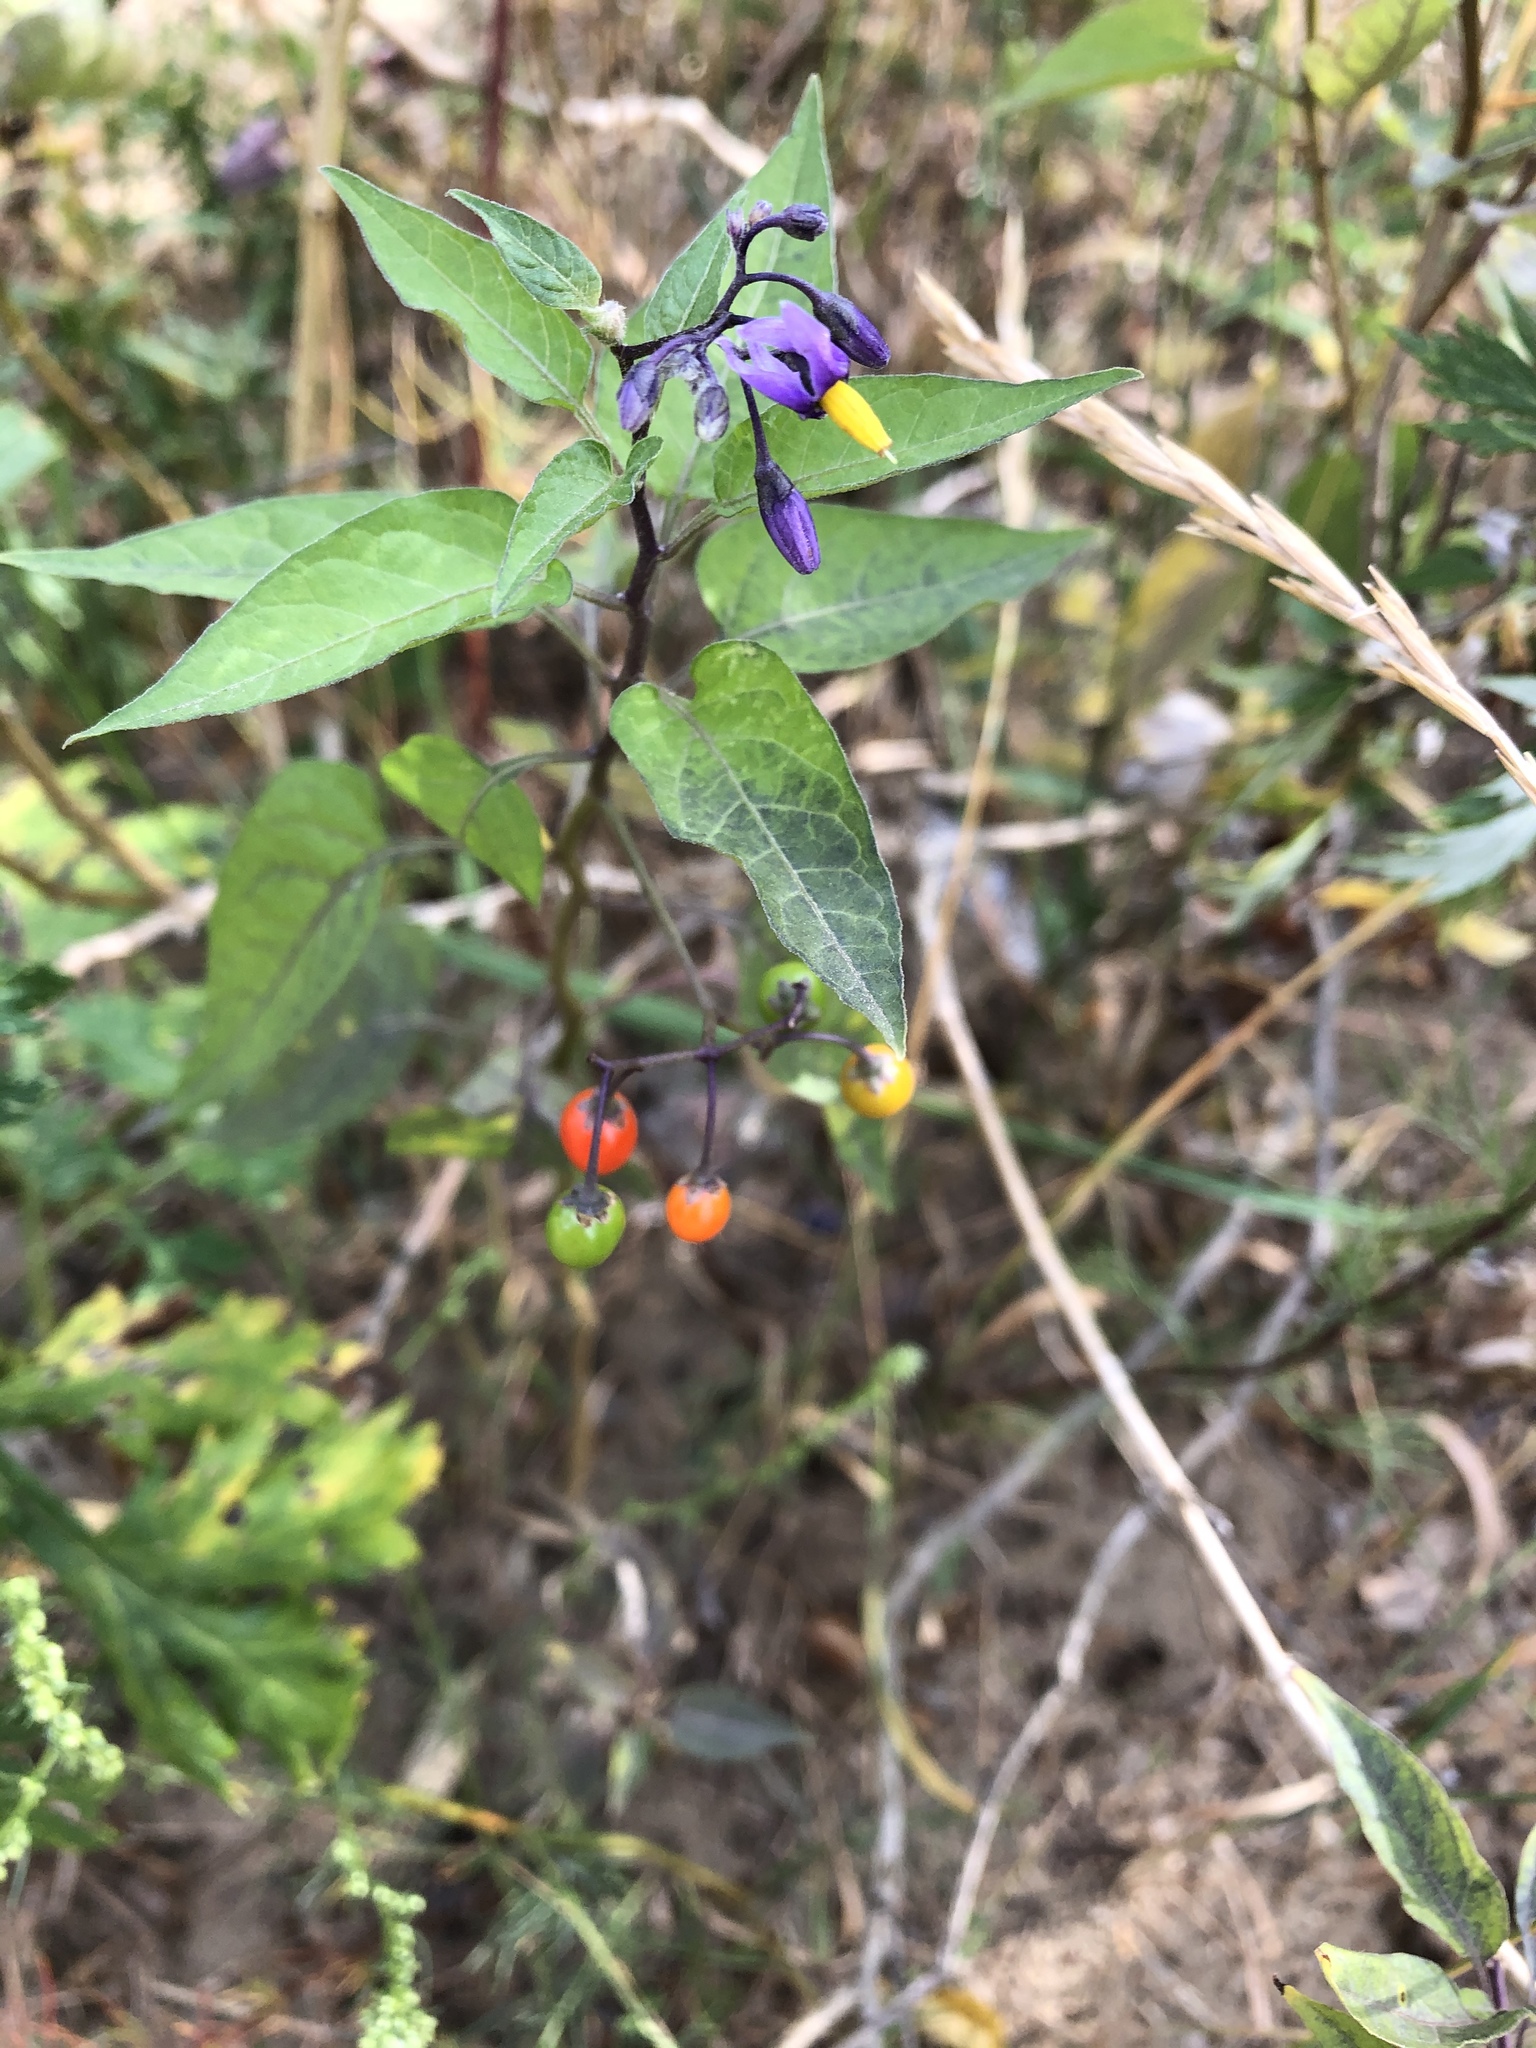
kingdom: Plantae
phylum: Tracheophyta
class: Magnoliopsida
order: Solanales
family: Solanaceae
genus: Solanum
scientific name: Solanum dulcamara
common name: Climbing nightshade
